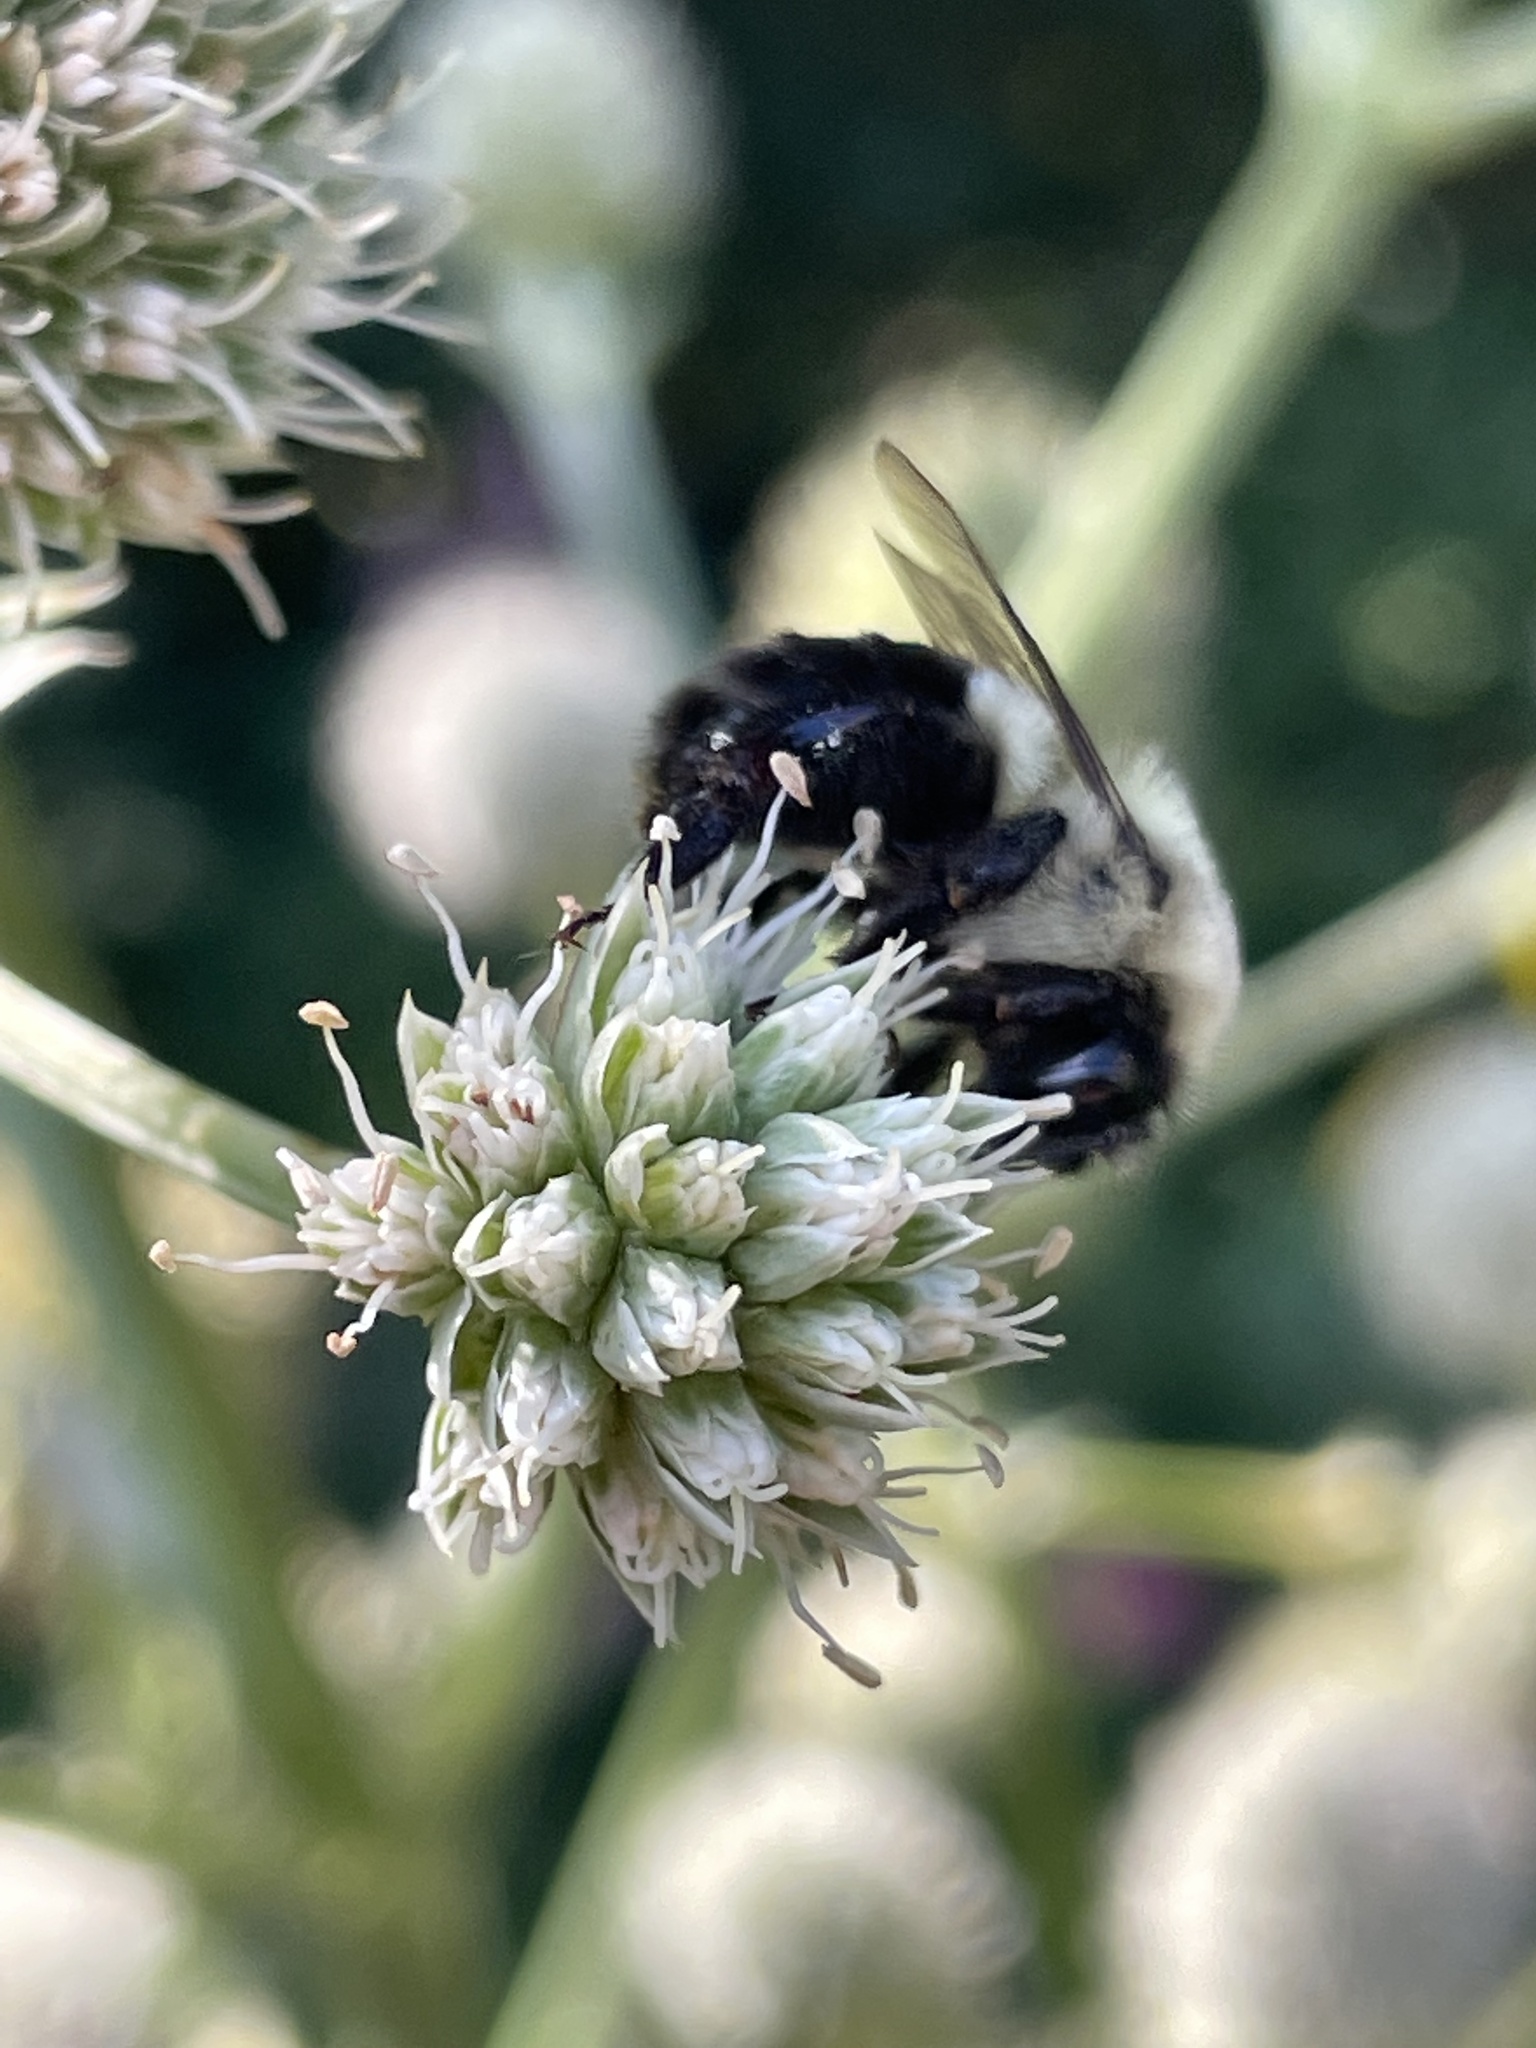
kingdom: Animalia
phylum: Arthropoda
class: Insecta
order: Hymenoptera
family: Apidae
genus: Bombus
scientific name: Bombus impatiens
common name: Common eastern bumble bee
